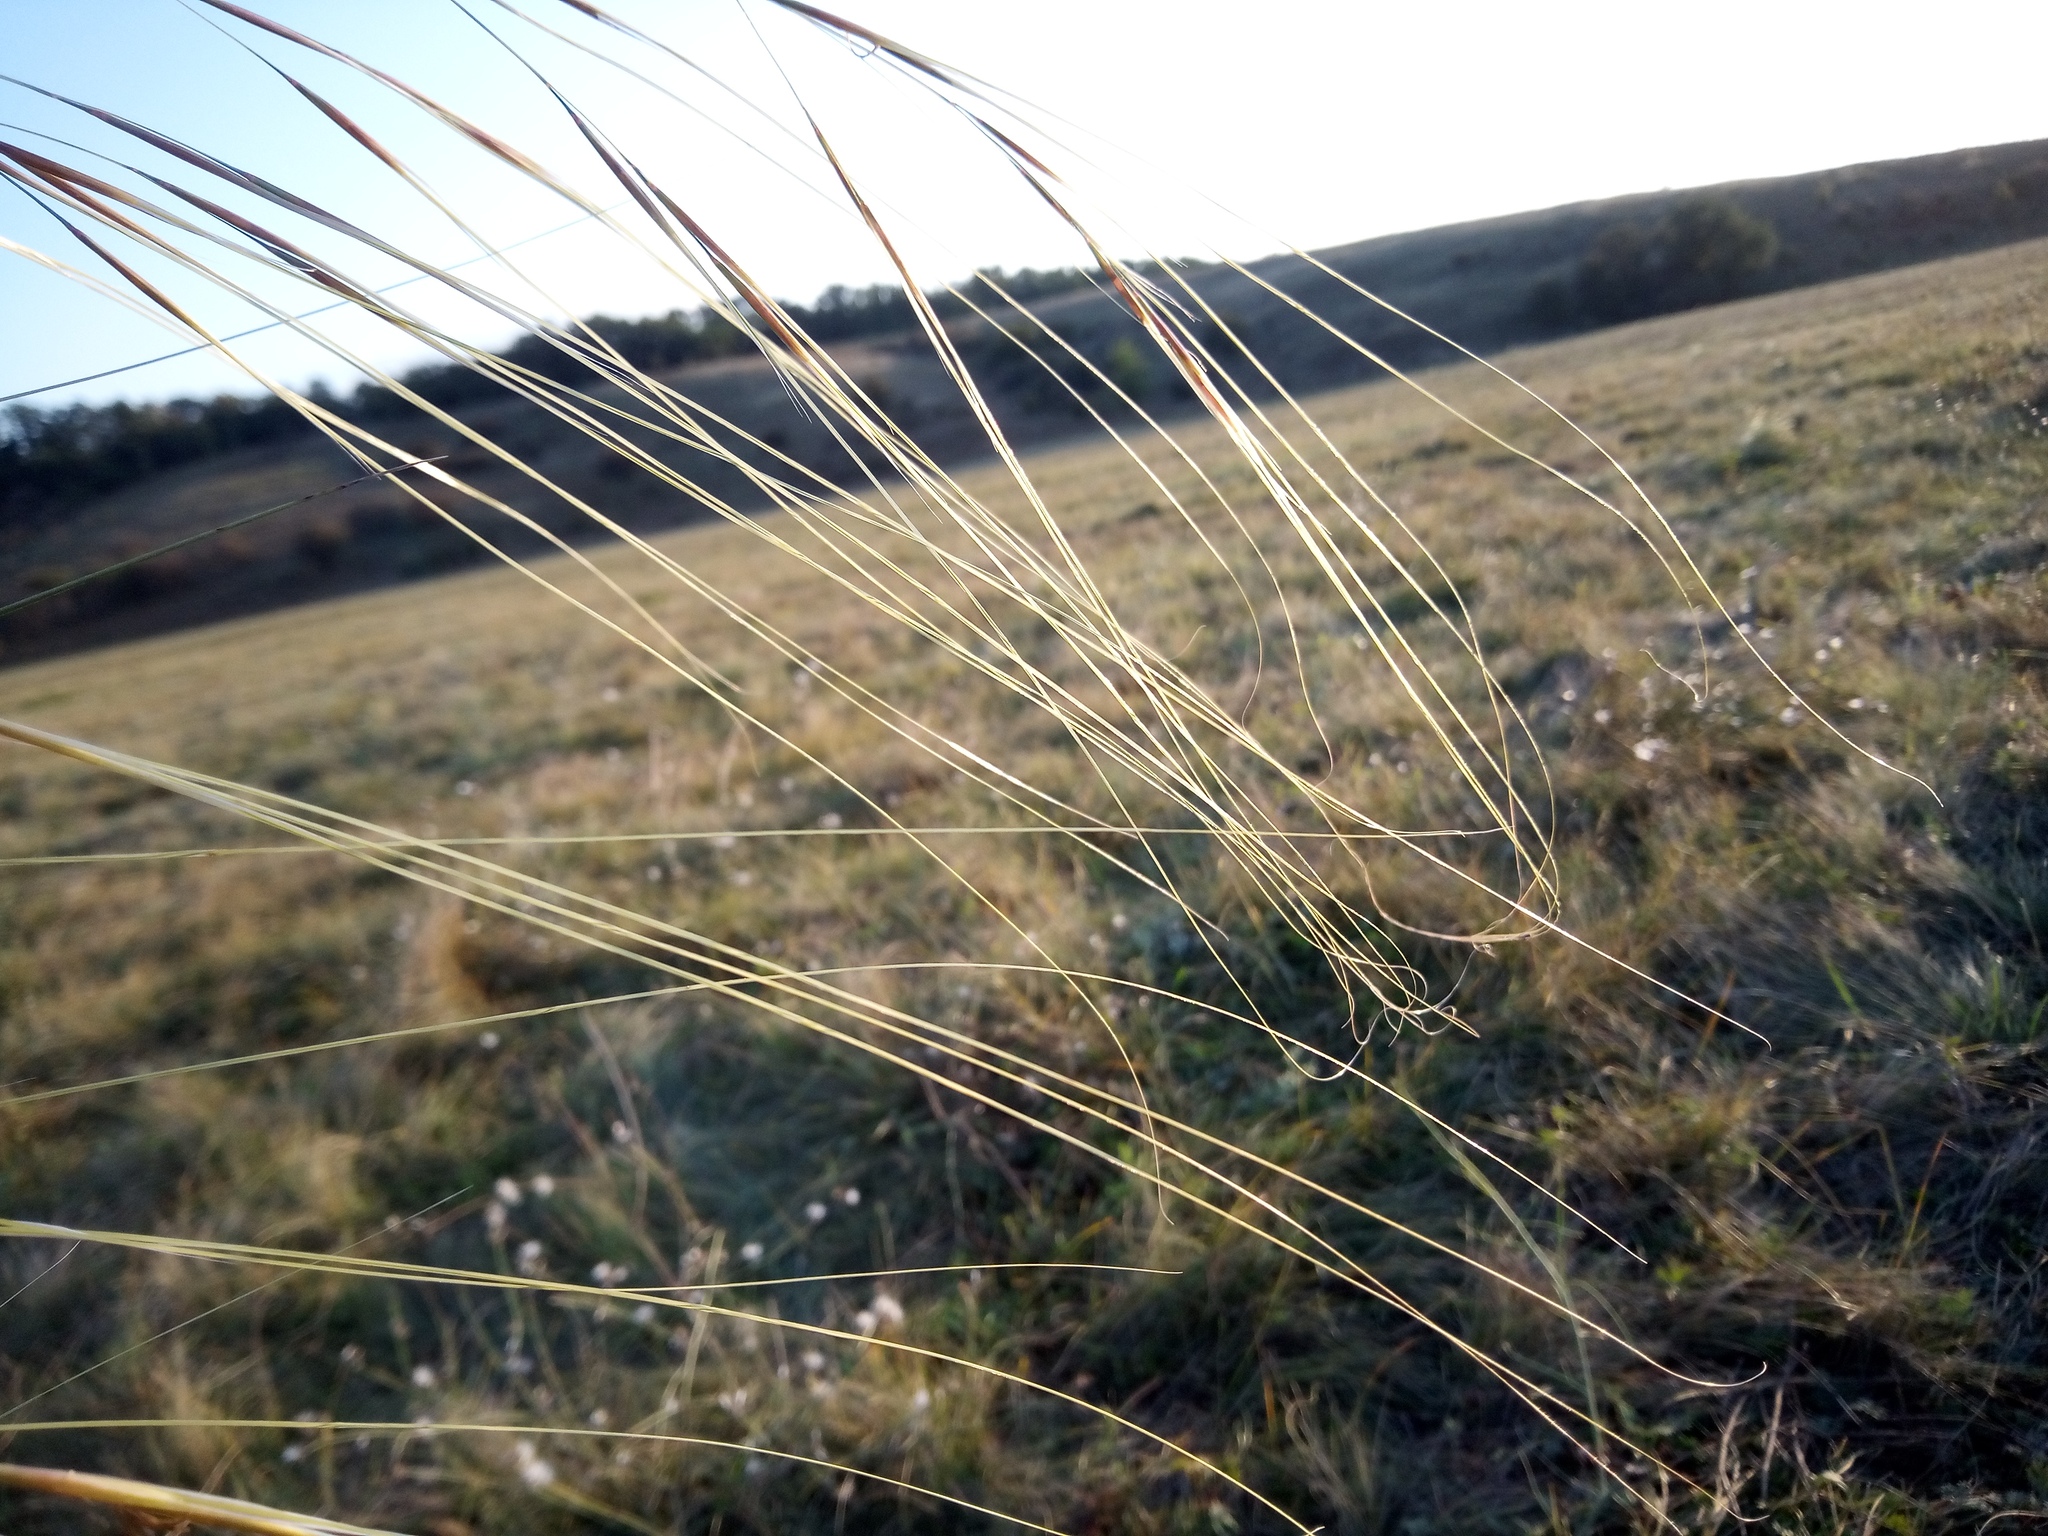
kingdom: Plantae
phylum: Tracheophyta
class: Liliopsida
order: Poales
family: Poaceae
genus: Stipa
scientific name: Stipa capillata
